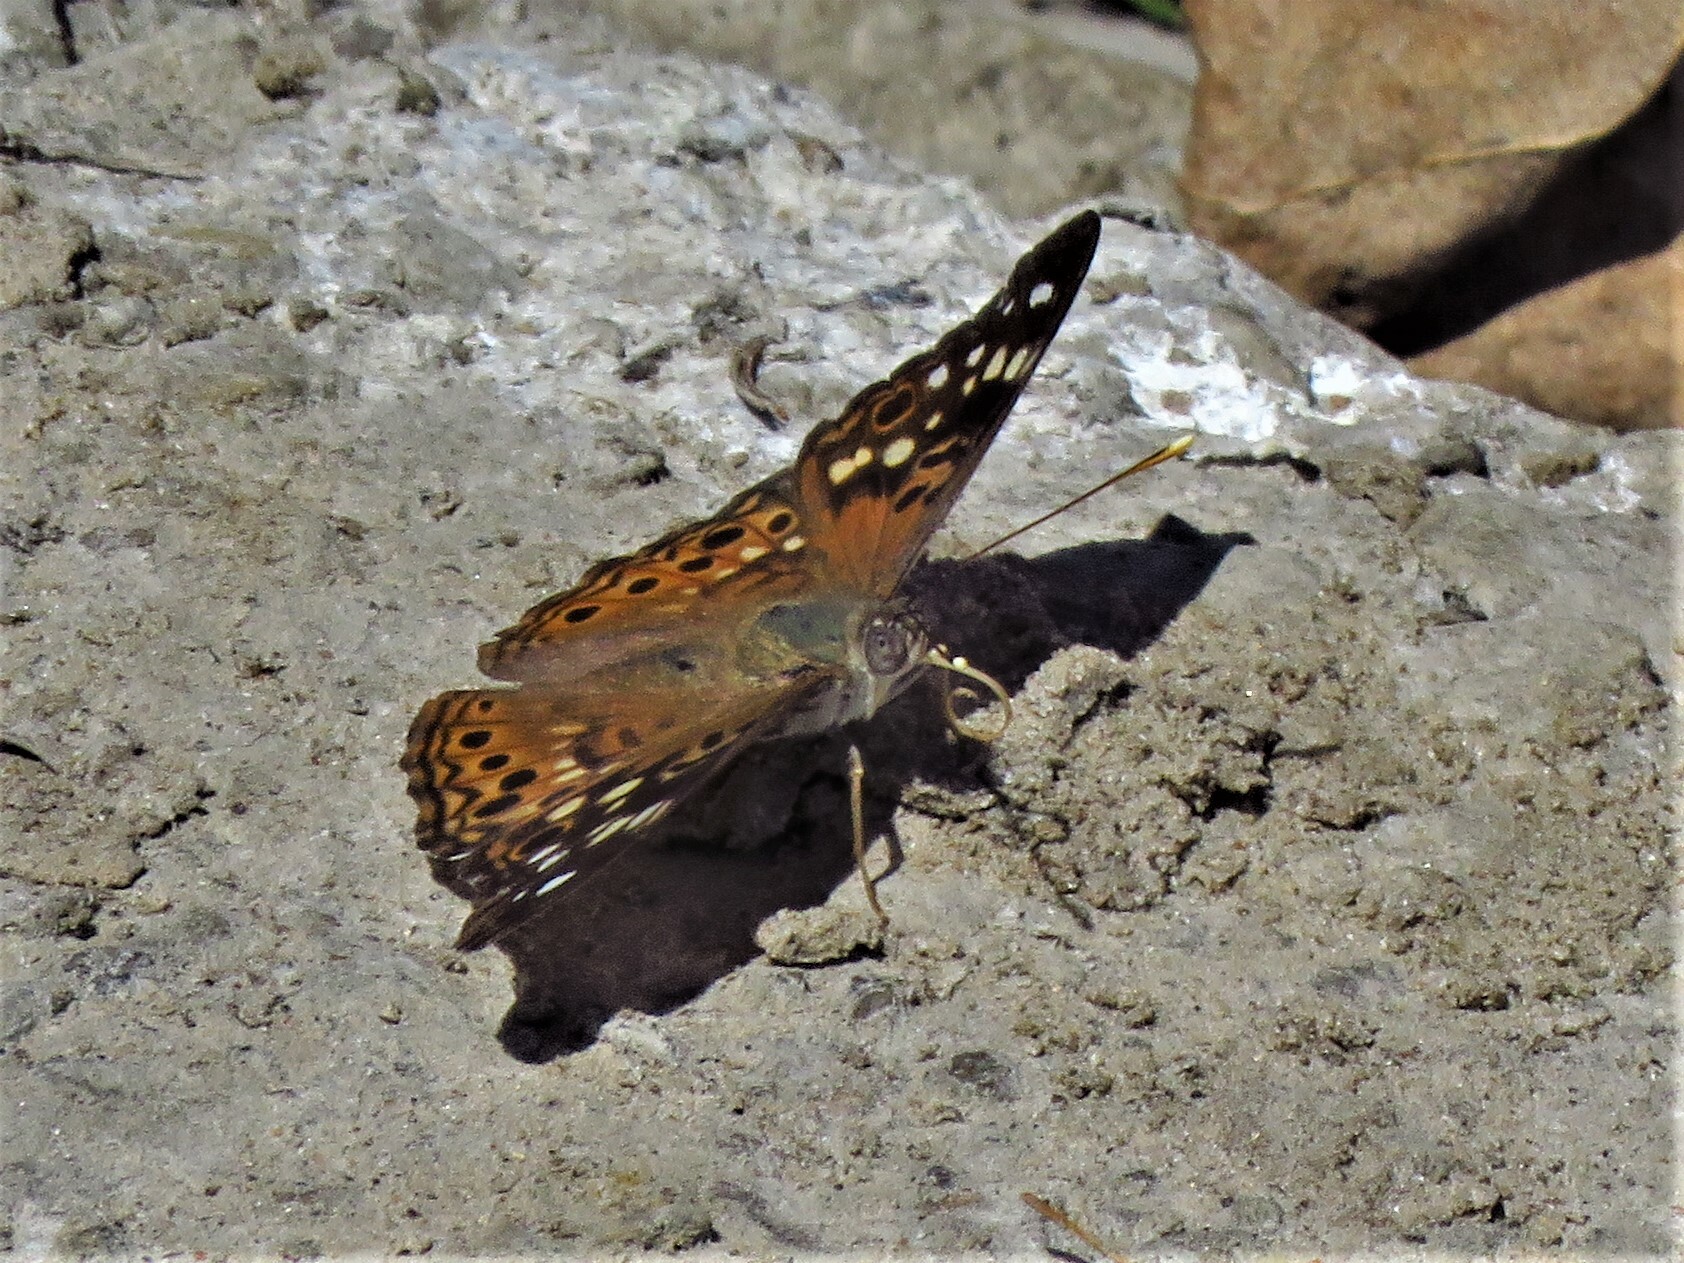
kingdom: Animalia
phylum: Arthropoda
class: Insecta
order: Lepidoptera
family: Nymphalidae
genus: Asterocampa
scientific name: Asterocampa celtis
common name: Hackberry emperor
